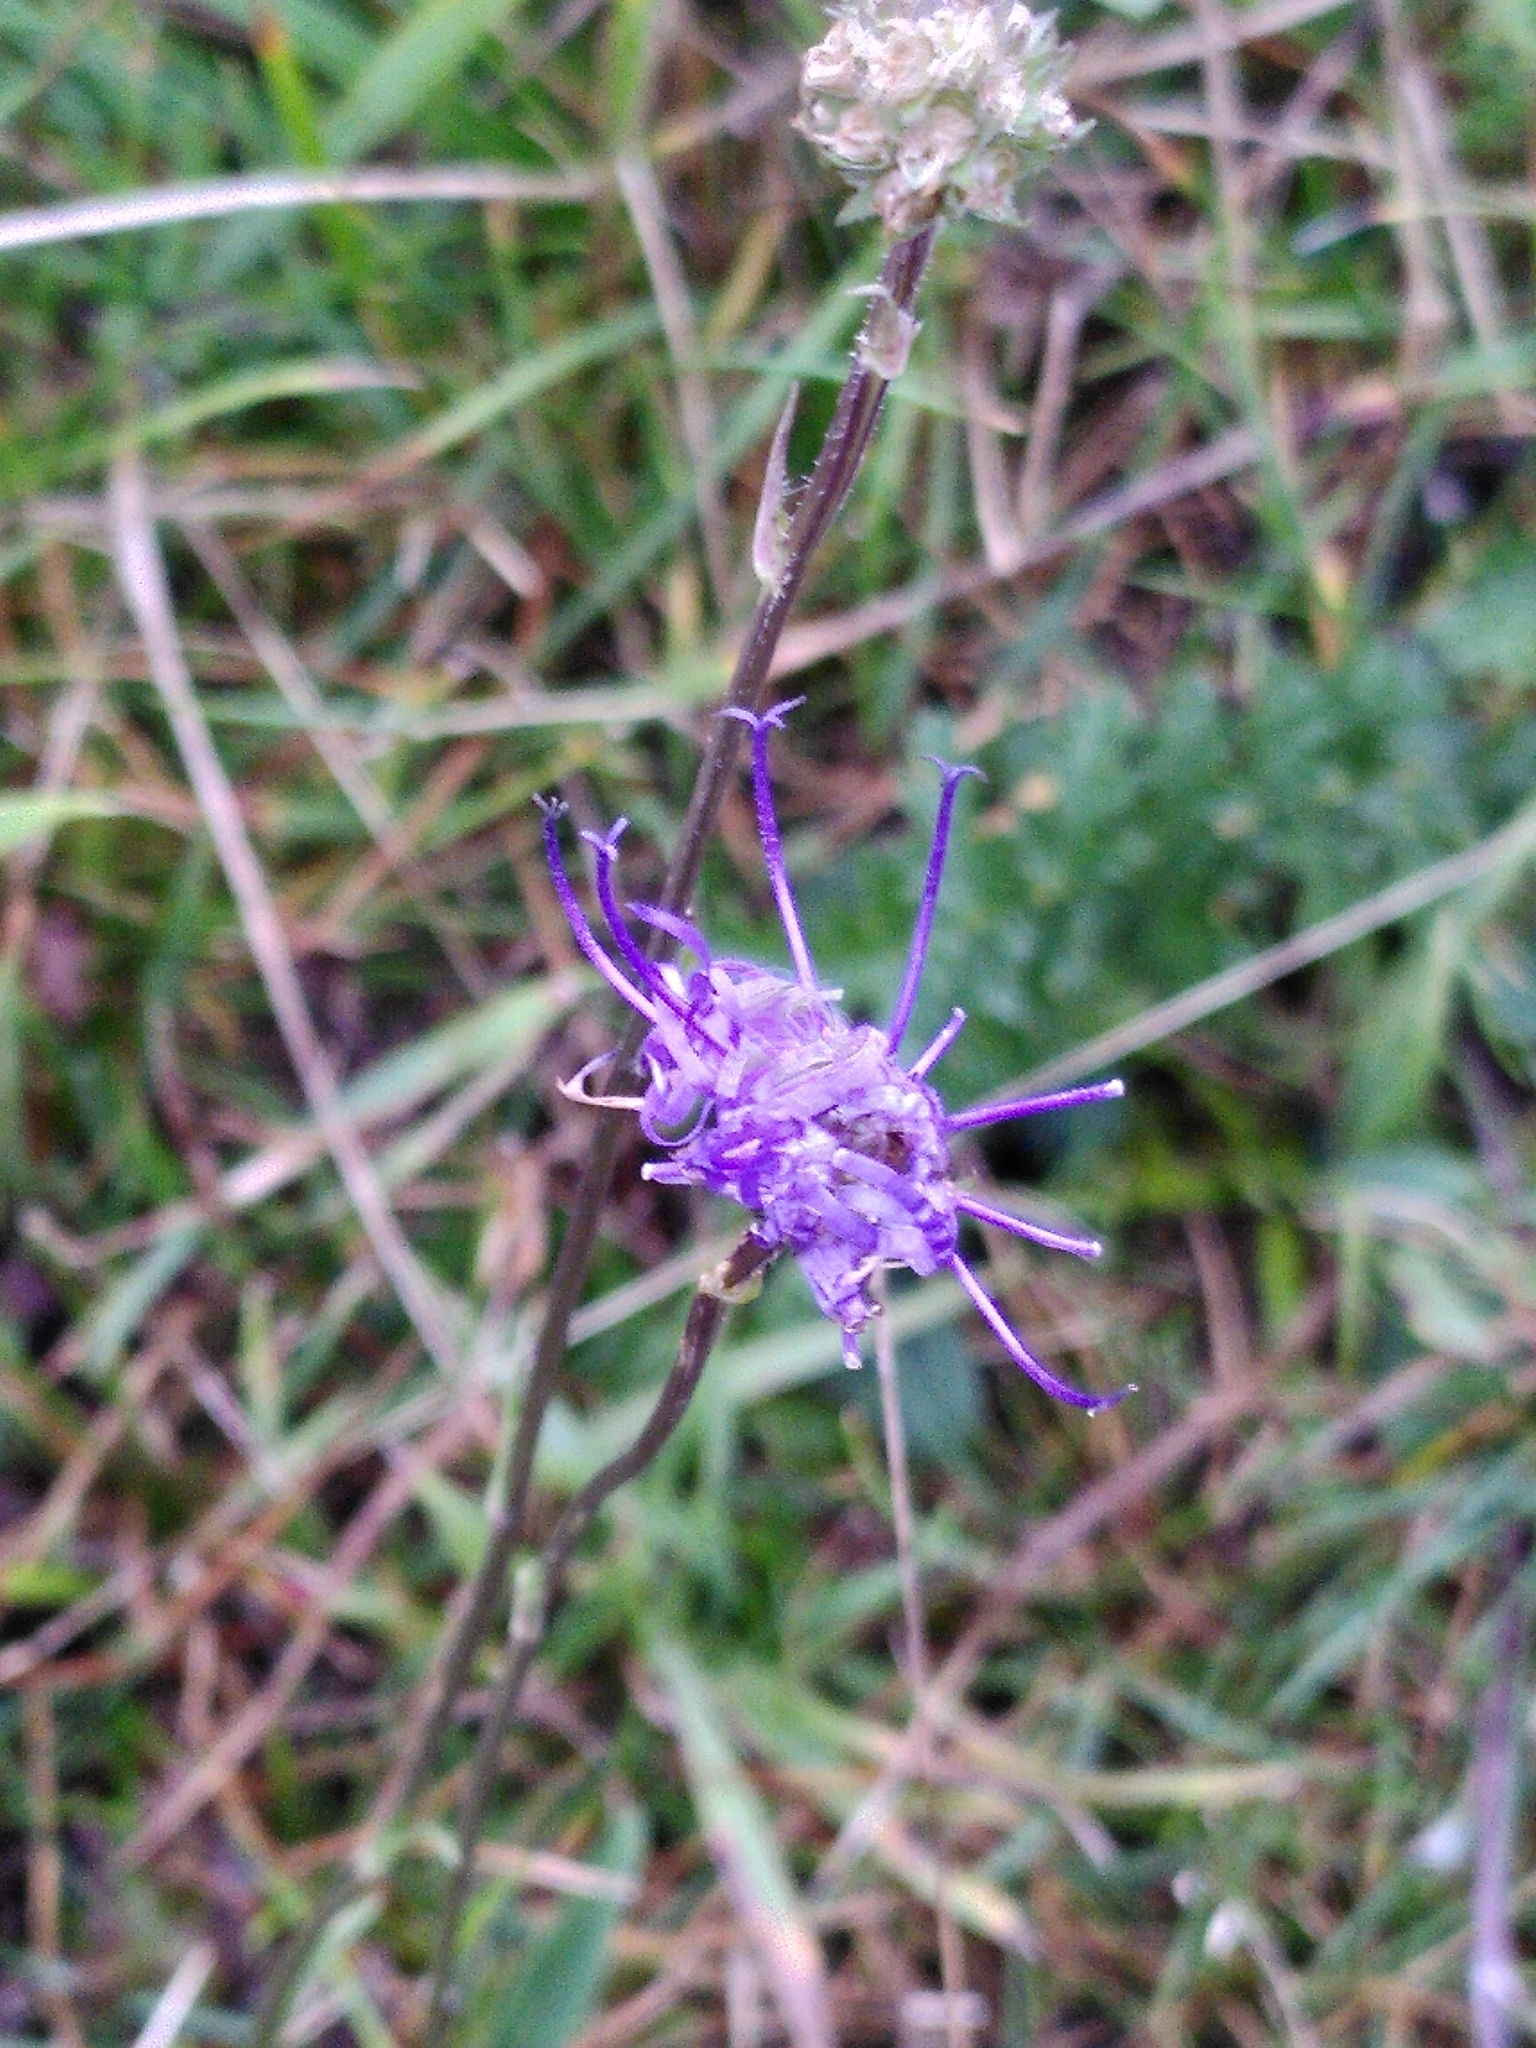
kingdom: Plantae
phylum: Tracheophyta
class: Magnoliopsida
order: Asterales
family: Campanulaceae
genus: Phyteuma
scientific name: Phyteuma orbiculare
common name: Round-headed rampion
